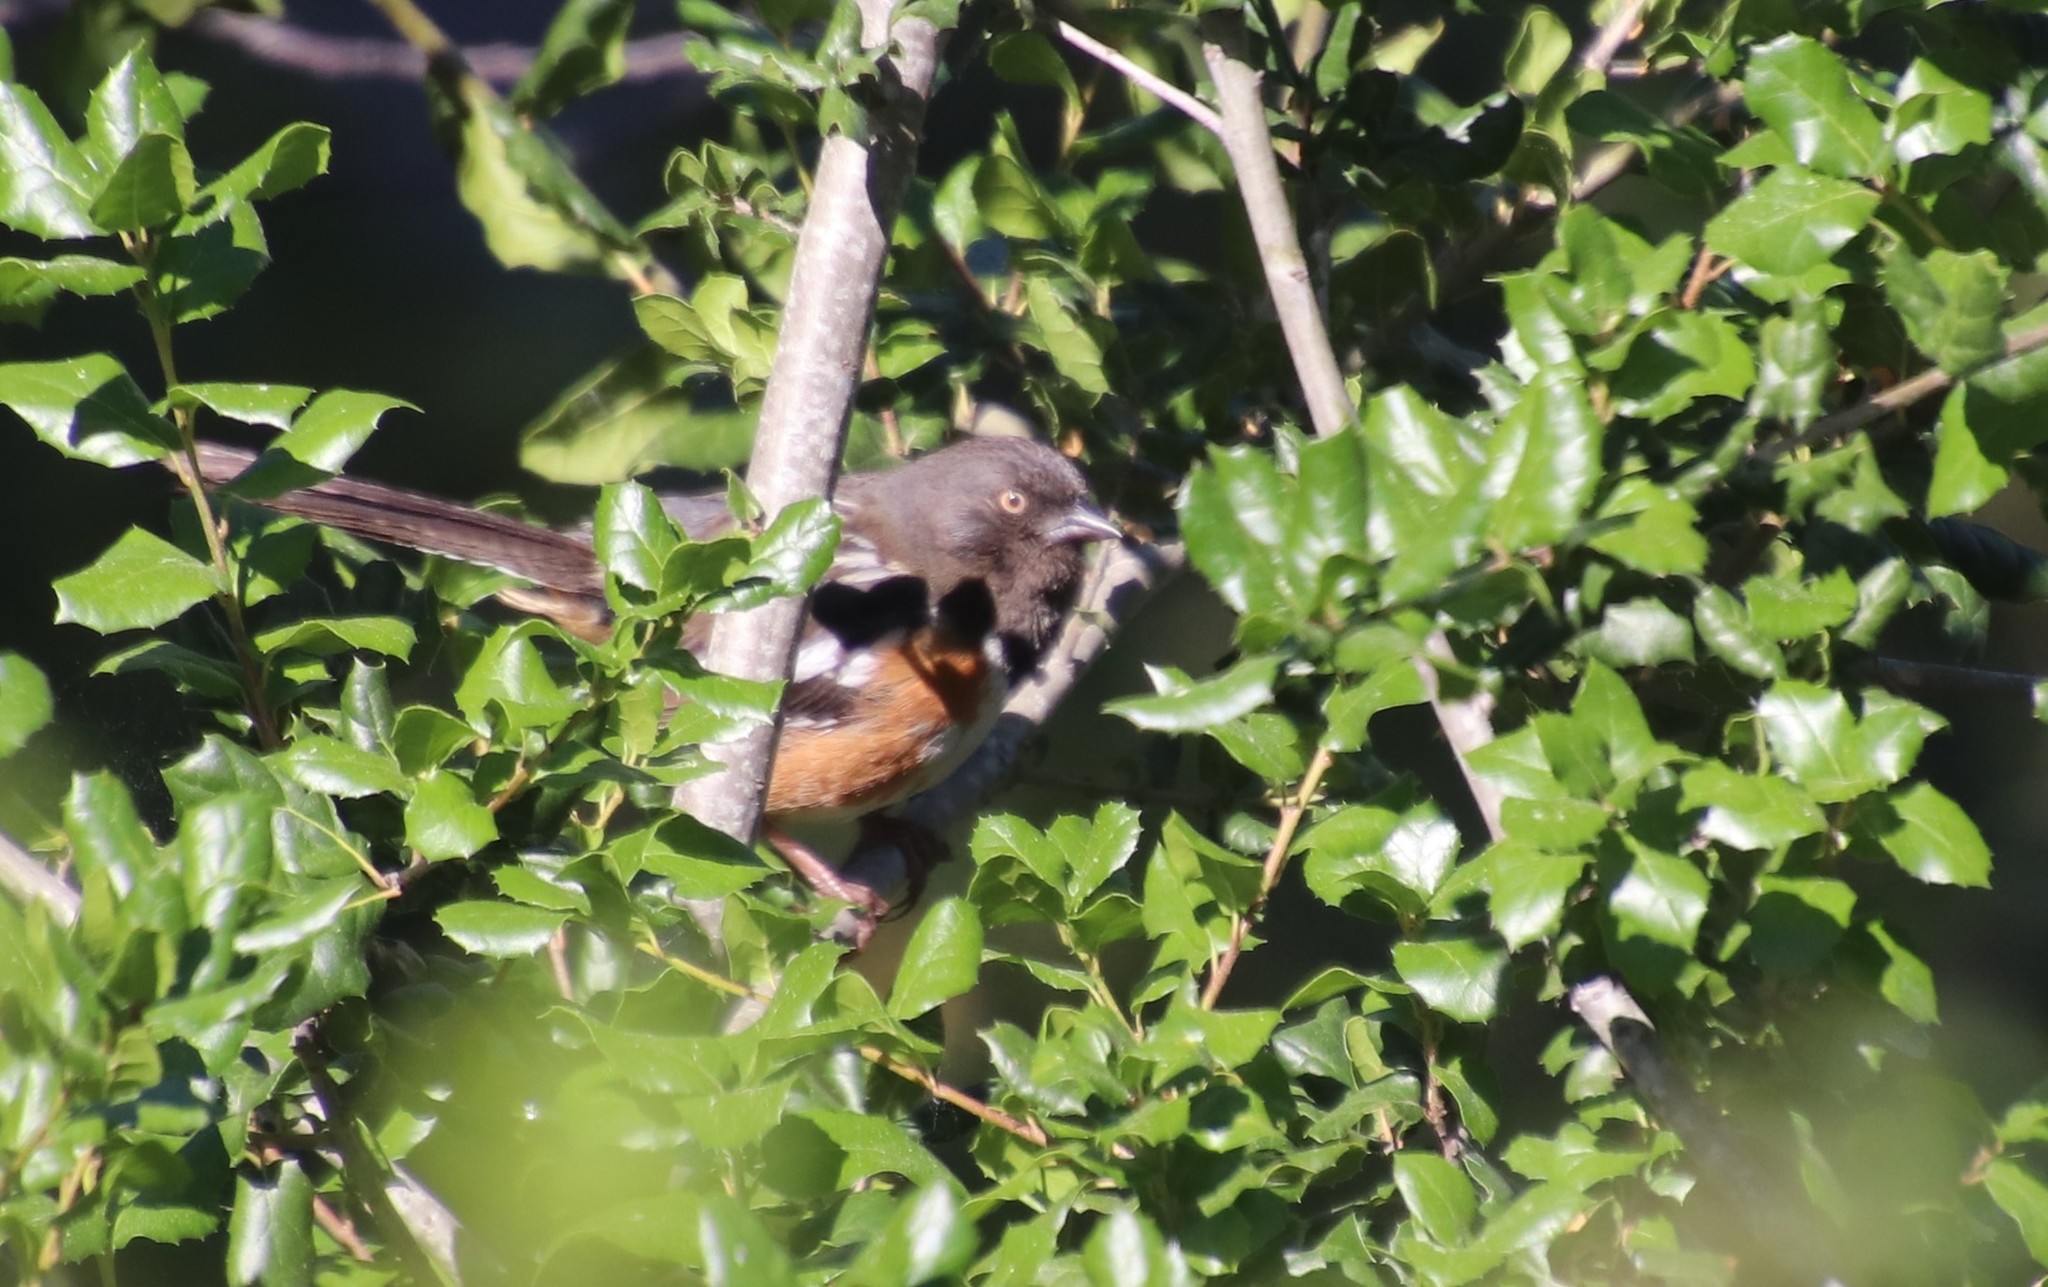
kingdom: Animalia
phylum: Chordata
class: Aves
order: Passeriformes
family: Passerellidae
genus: Pipilo
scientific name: Pipilo maculatus
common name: Spotted towhee
